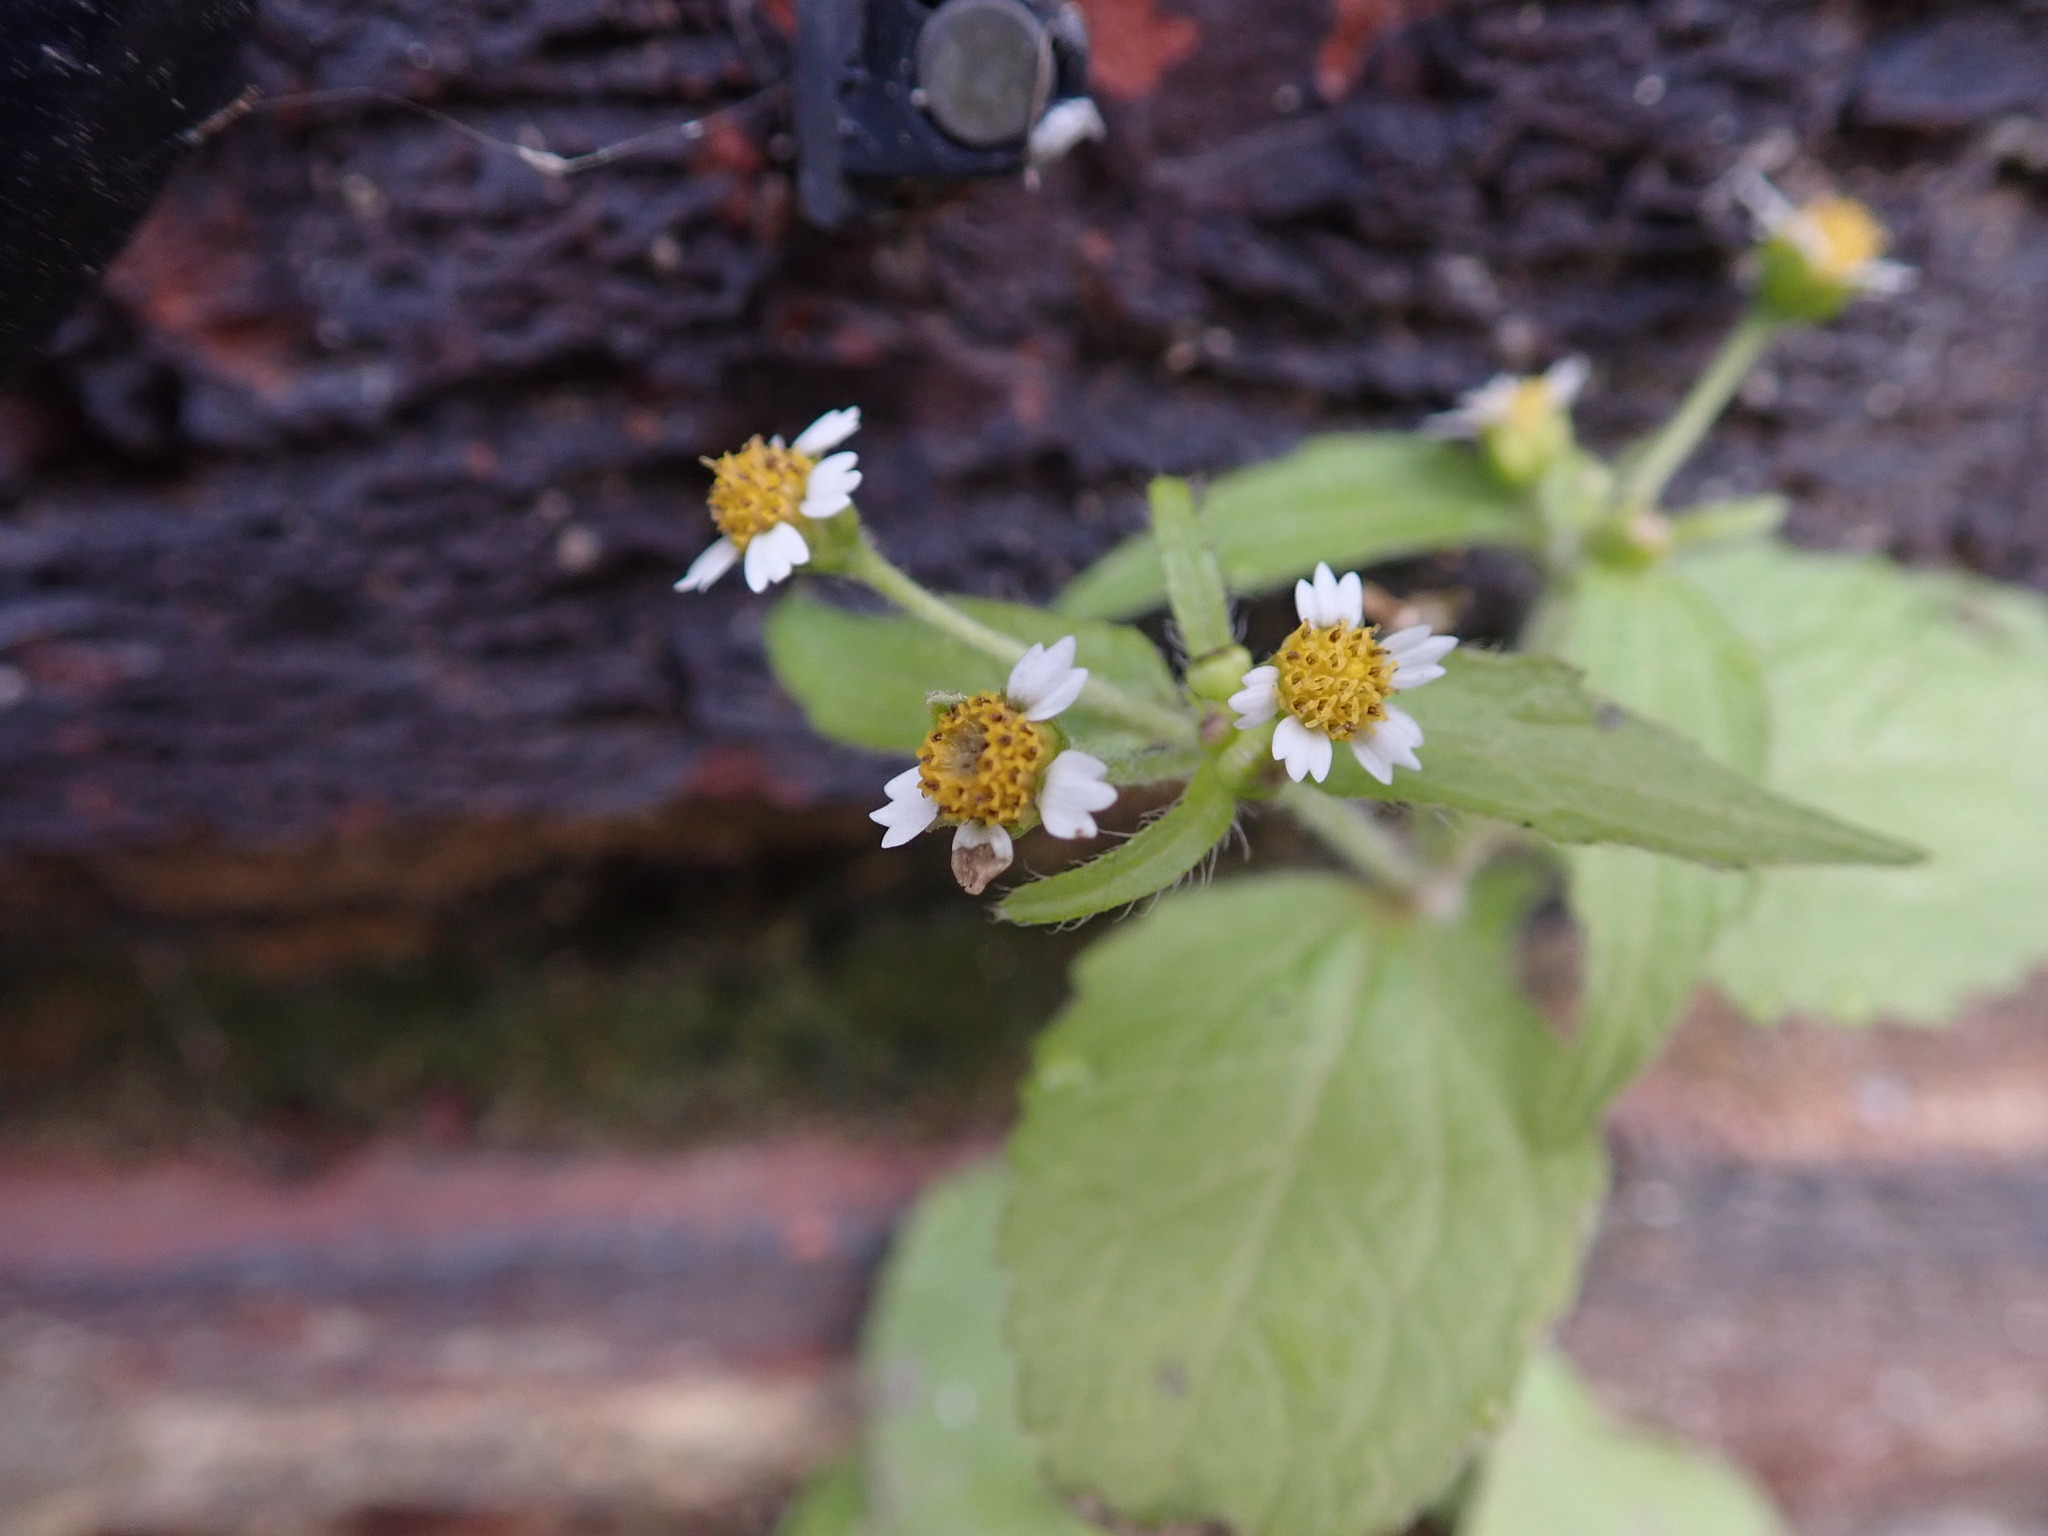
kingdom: Plantae
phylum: Tracheophyta
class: Magnoliopsida
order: Asterales
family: Asteraceae
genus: Galinsoga
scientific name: Galinsoga quadriradiata
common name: Shaggy soldier
